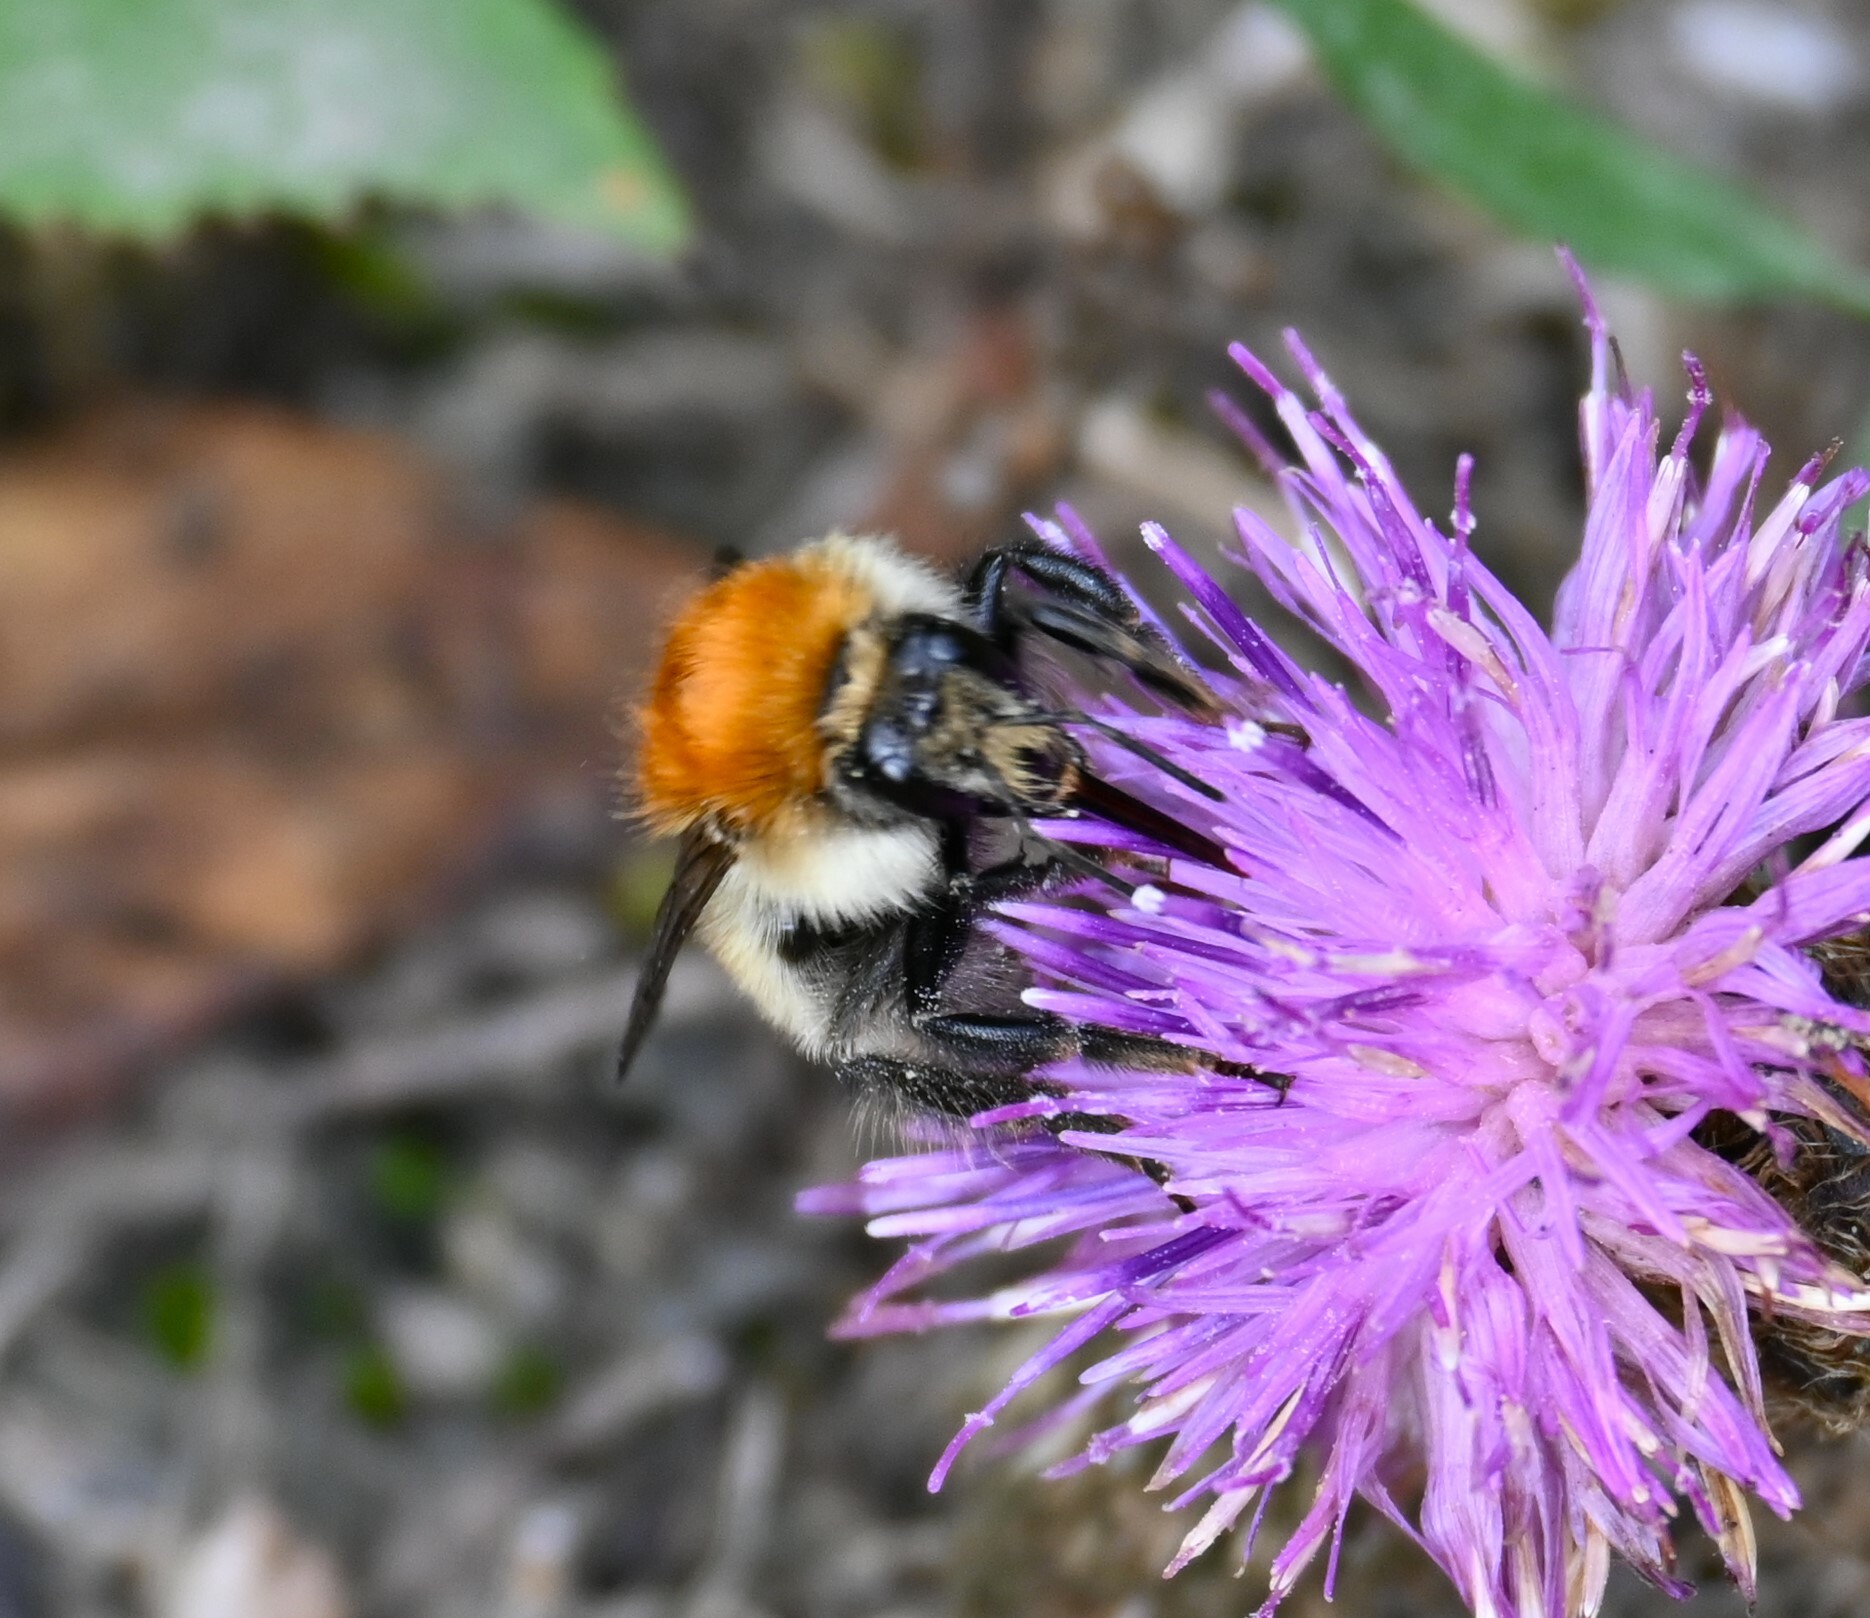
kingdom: Animalia
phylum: Arthropoda
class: Insecta
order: Hymenoptera
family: Apidae
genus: Bombus
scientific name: Bombus pascuorum
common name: Common carder bee
